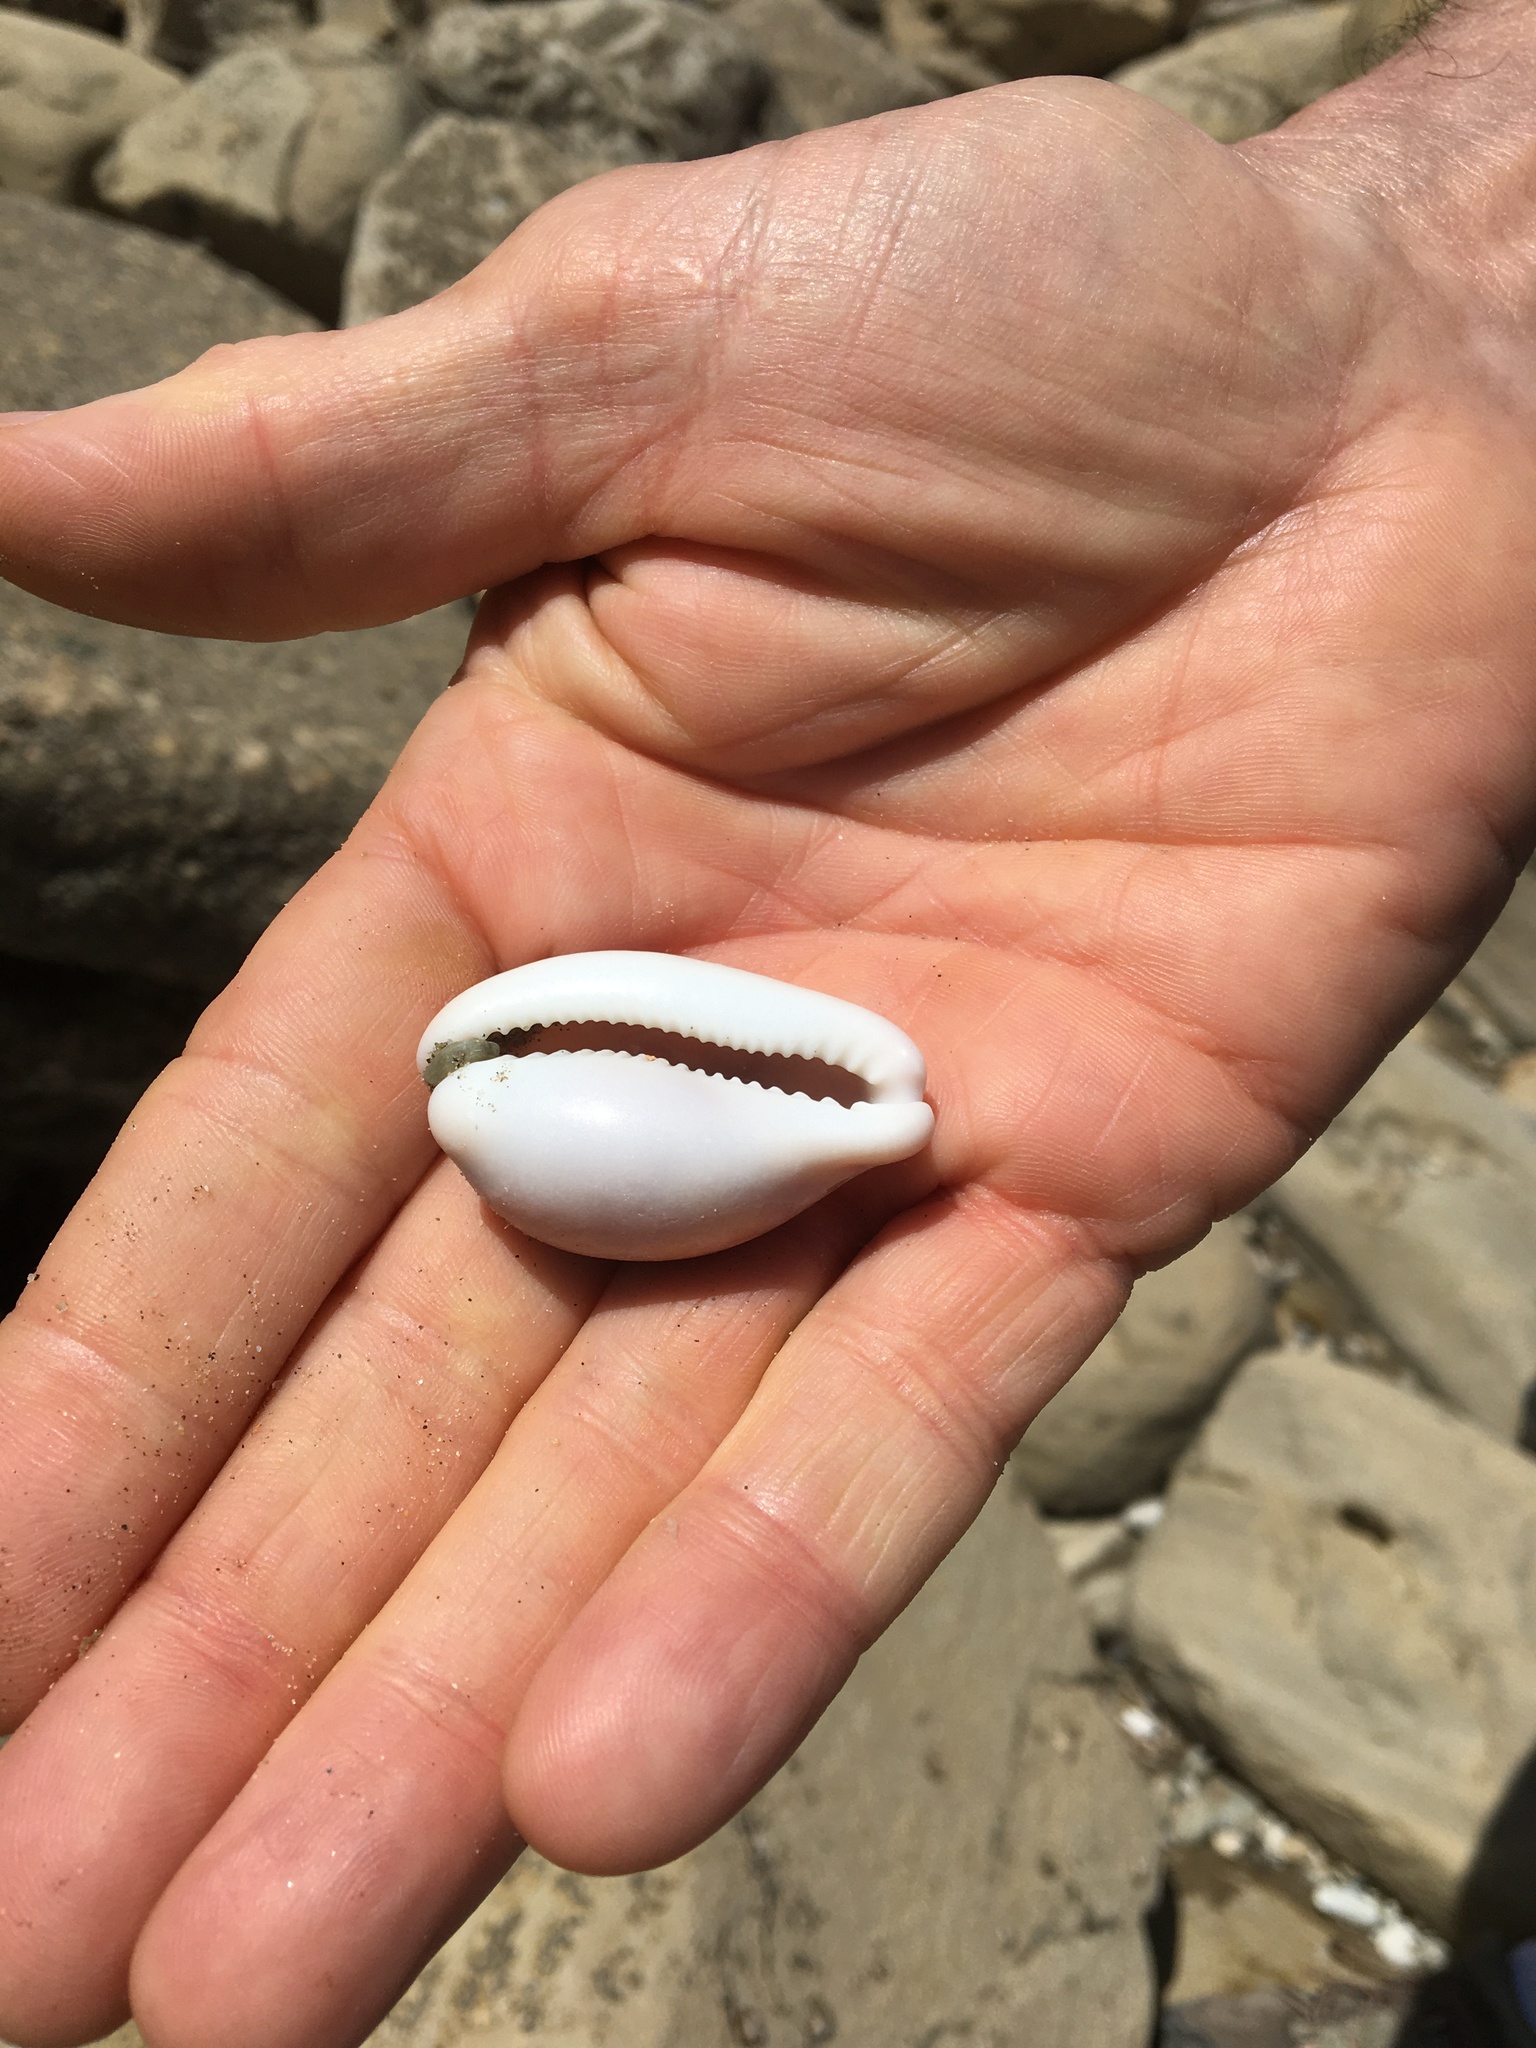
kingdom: Animalia
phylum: Mollusca
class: Gastropoda
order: Littorinimorpha
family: Cypraeidae
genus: Neobernaya
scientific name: Neobernaya spadicea
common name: Chestnut cowrie
